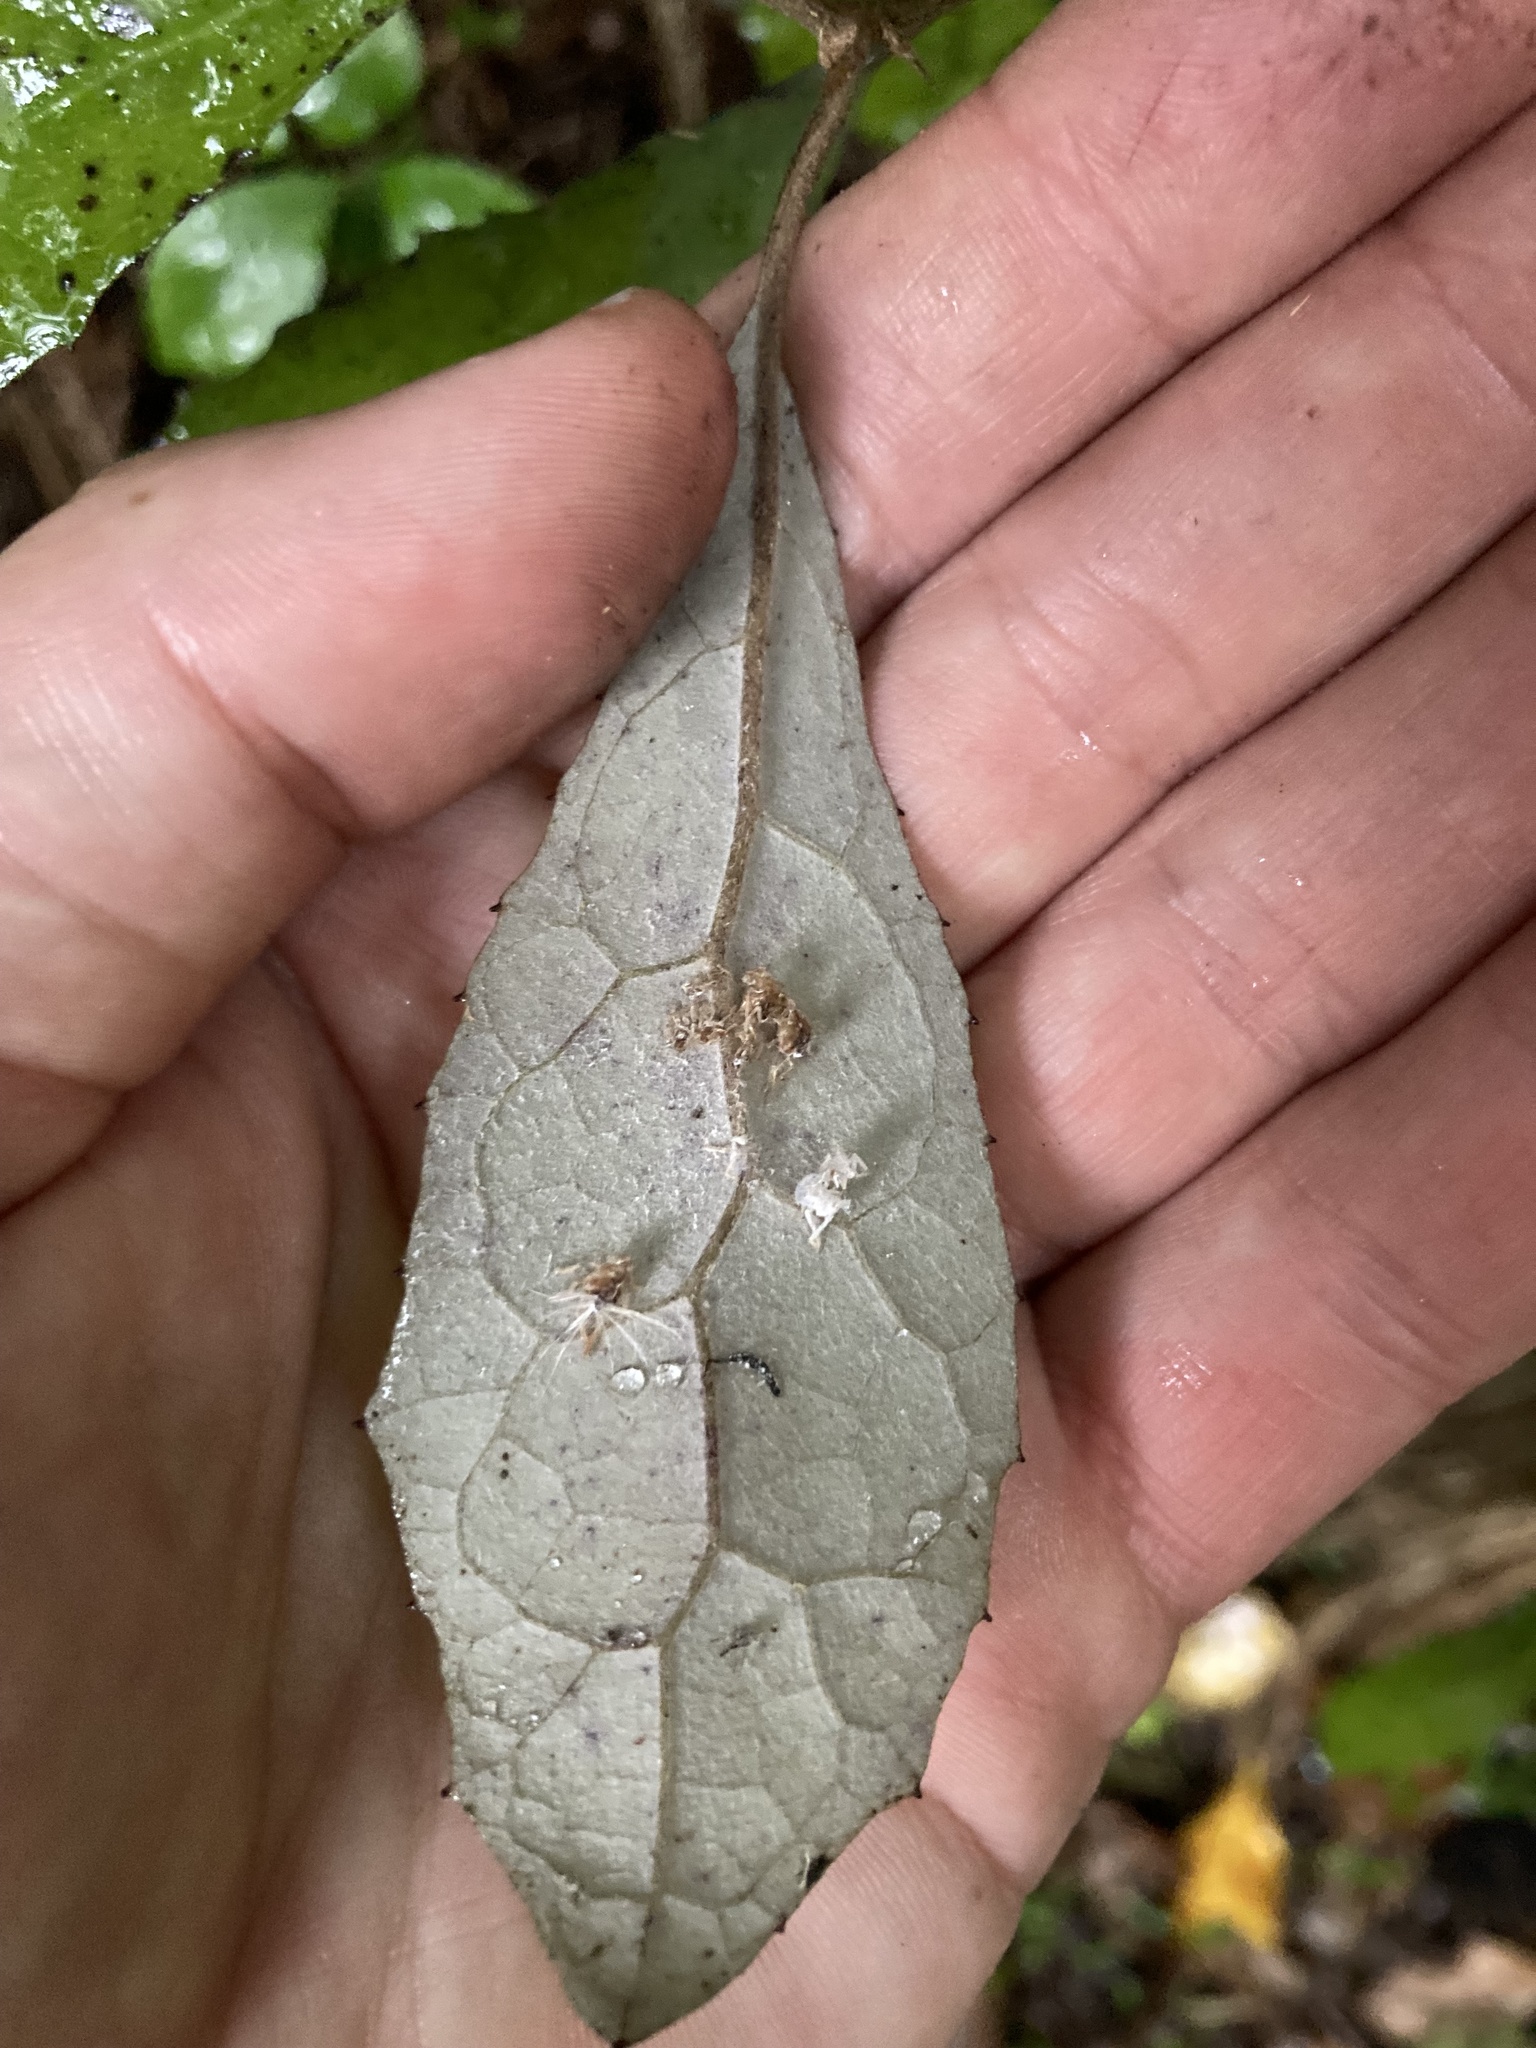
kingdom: Plantae
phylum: Tracheophyta
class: Magnoliopsida
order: Asterales
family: Asteraceae
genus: Olearia
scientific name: Olearia rani
